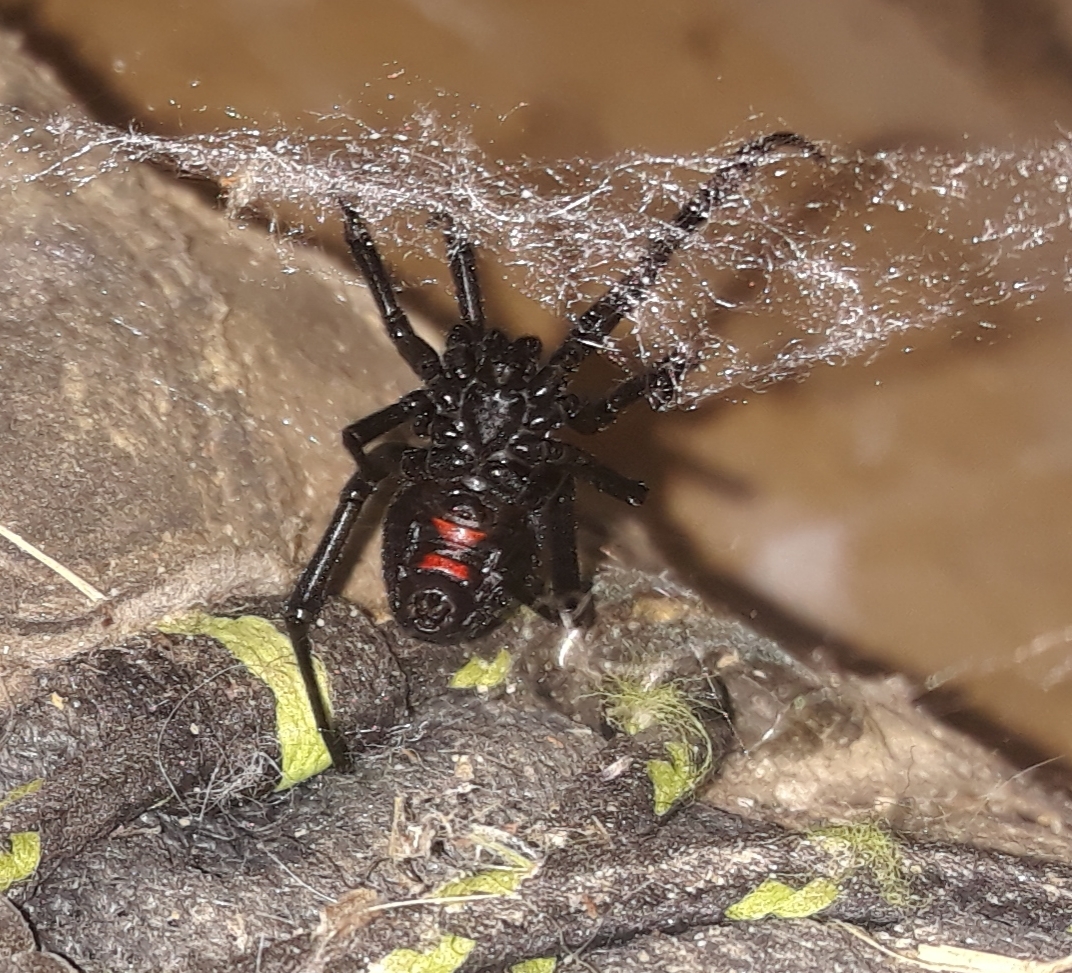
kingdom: Animalia
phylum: Arthropoda
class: Arachnida
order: Araneae
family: Theridiidae
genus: Latrodectus
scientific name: Latrodectus hesperus
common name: Western black widow
